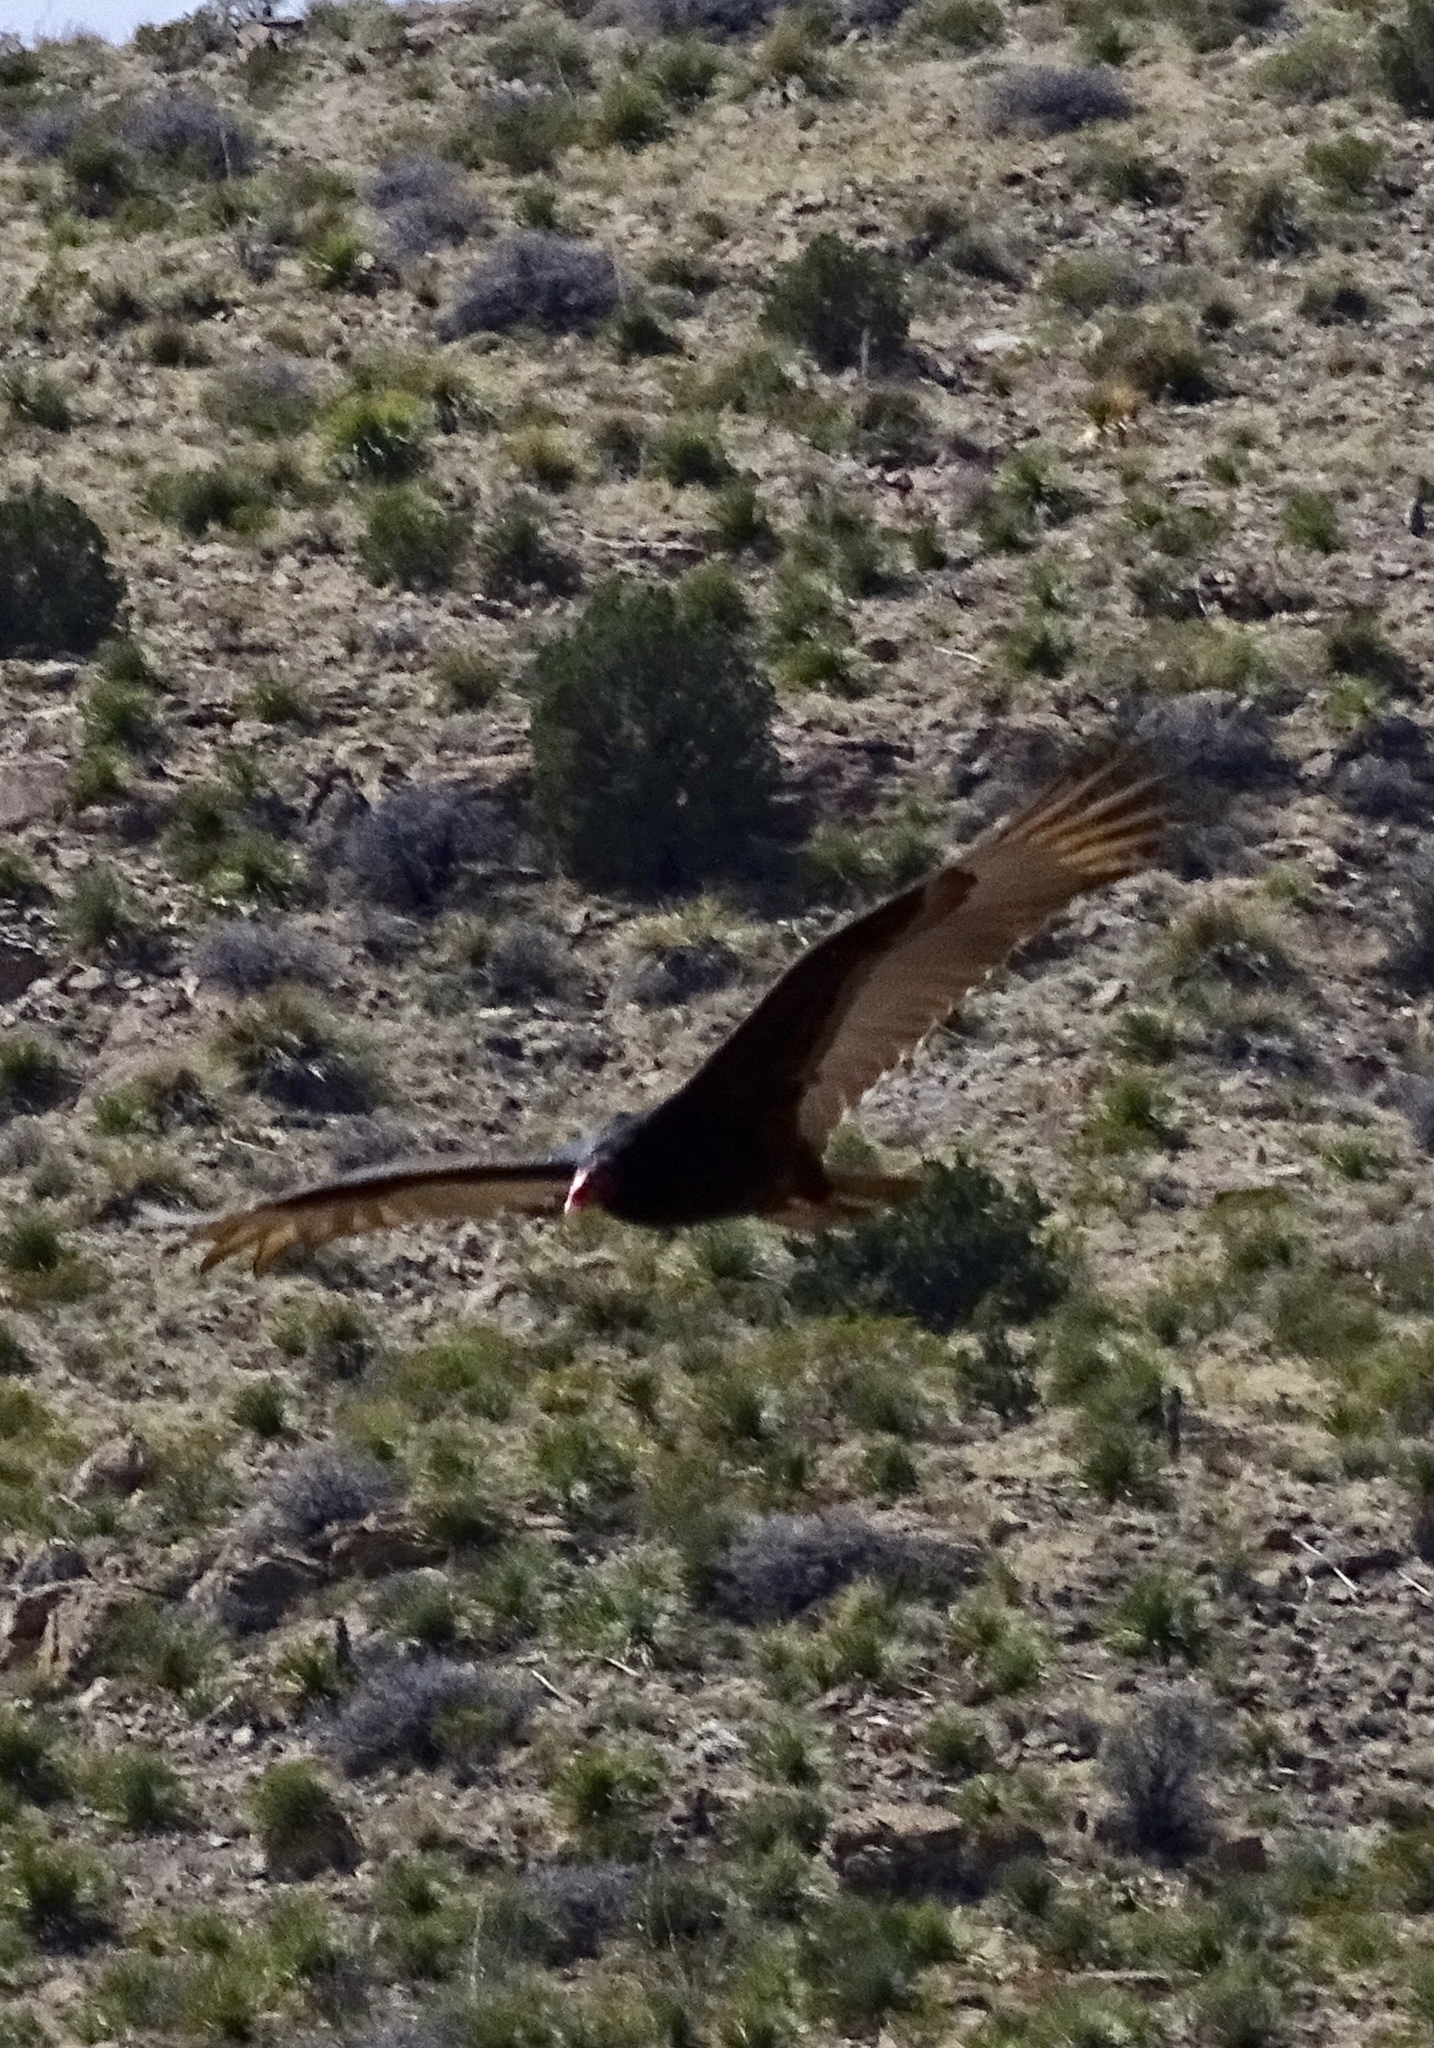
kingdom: Animalia
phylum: Chordata
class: Aves
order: Accipitriformes
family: Cathartidae
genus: Cathartes
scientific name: Cathartes aura
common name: Turkey vulture
